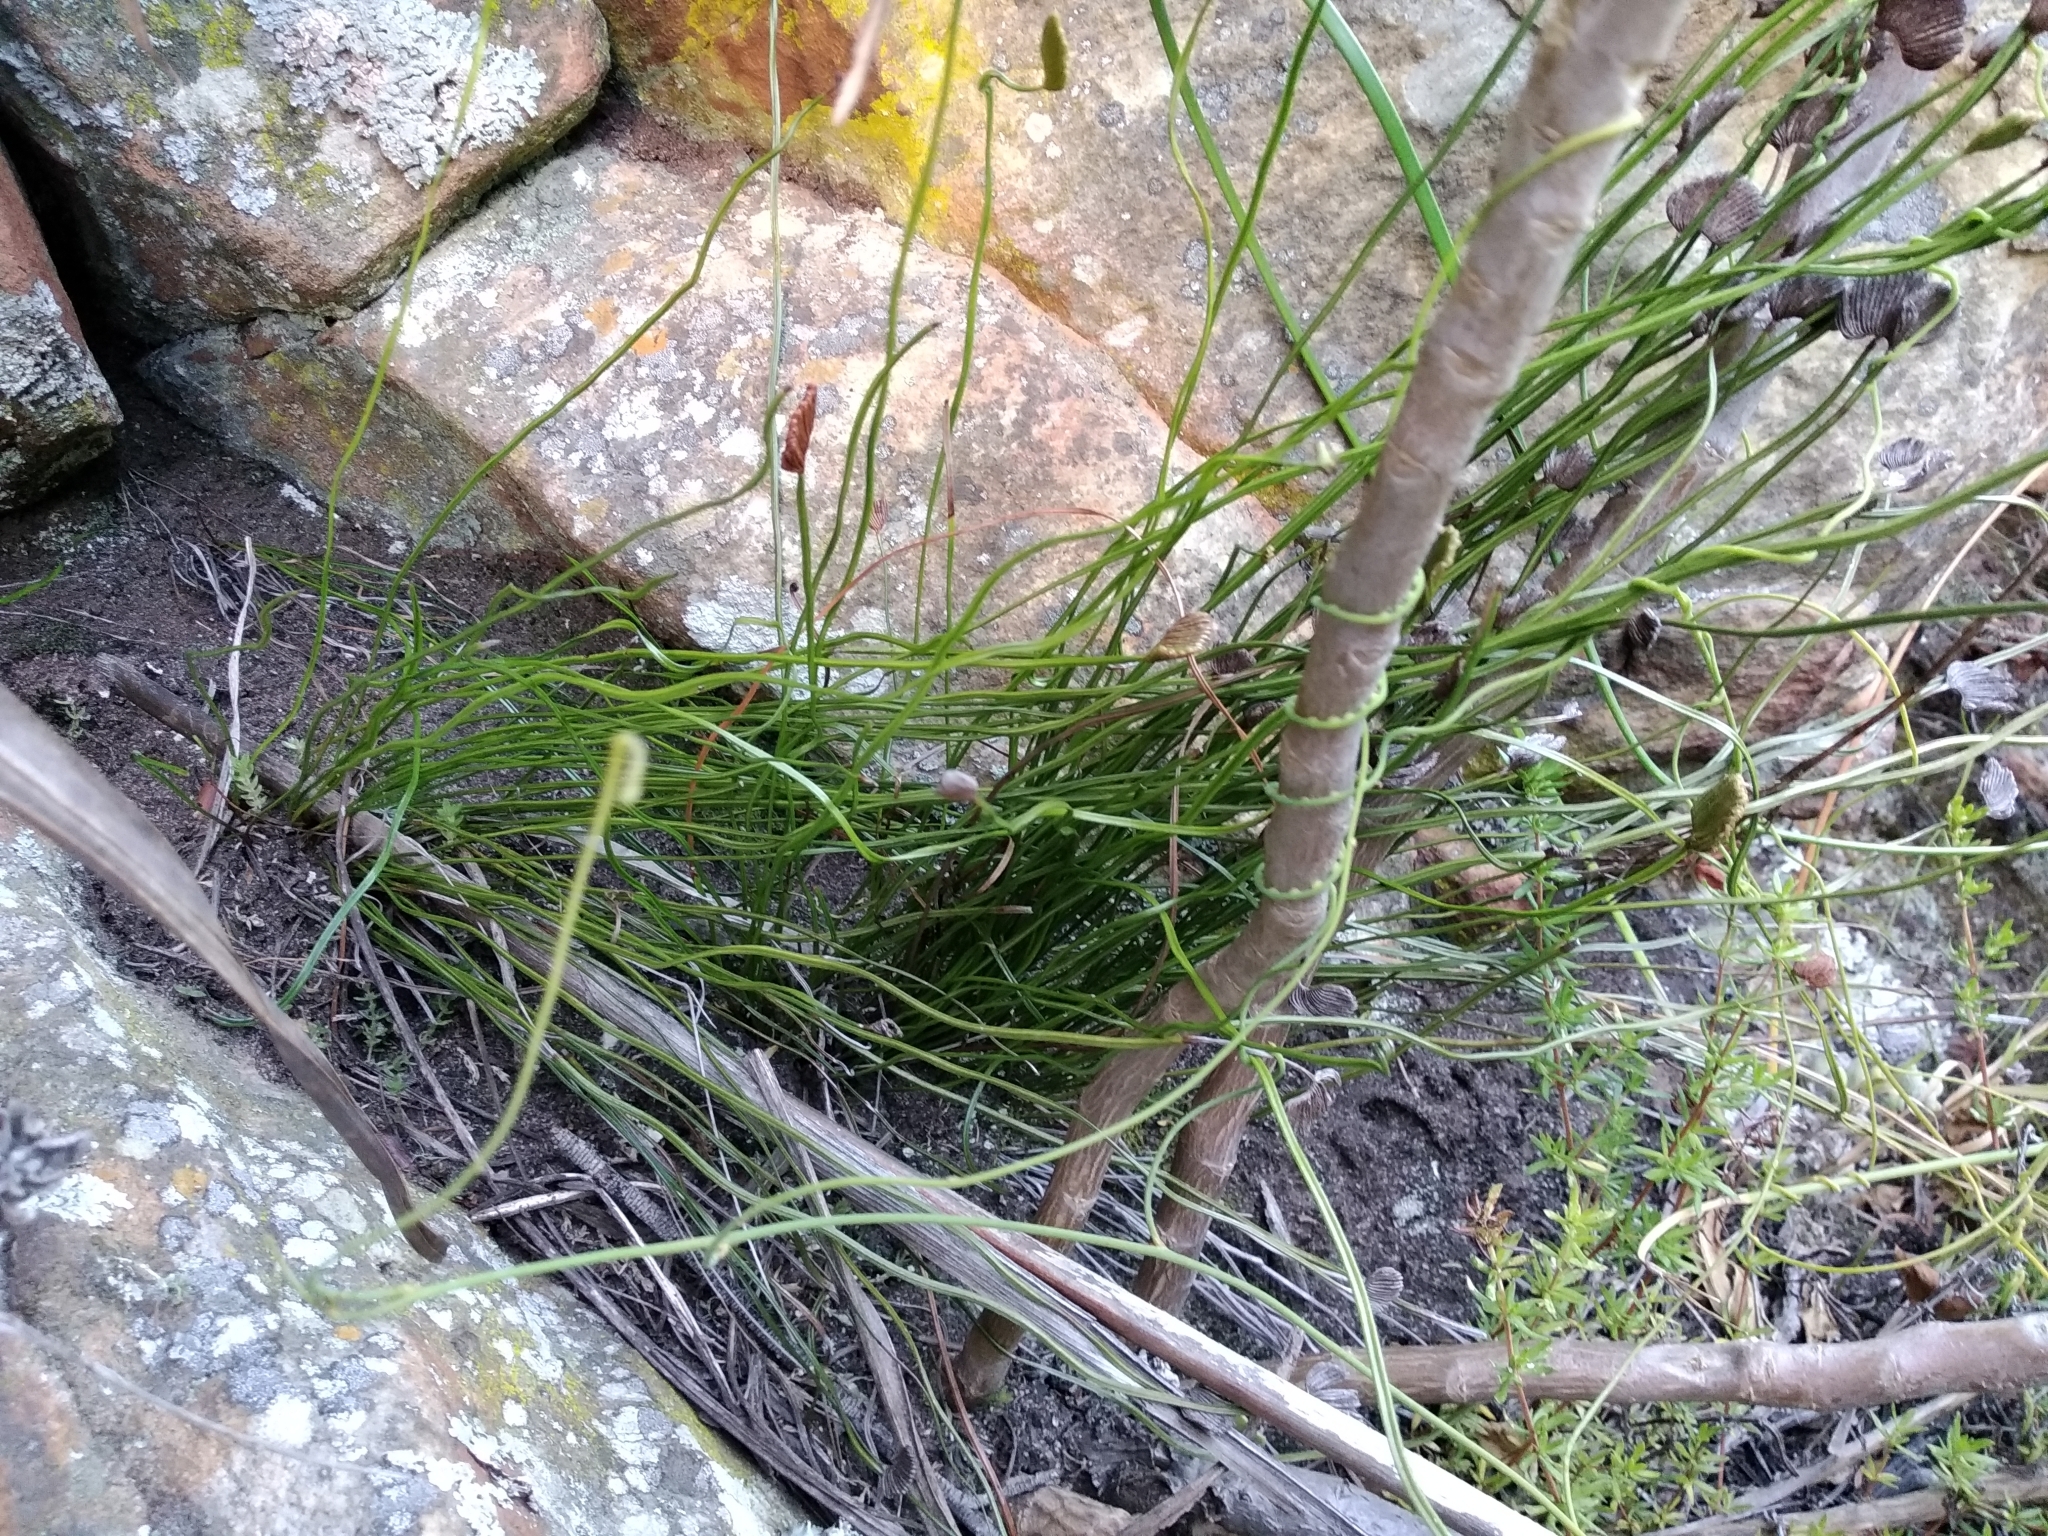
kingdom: Plantae
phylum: Tracheophyta
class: Polypodiopsida
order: Schizaeales
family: Schizaeaceae
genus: Schizaea
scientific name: Schizaea pectinata
